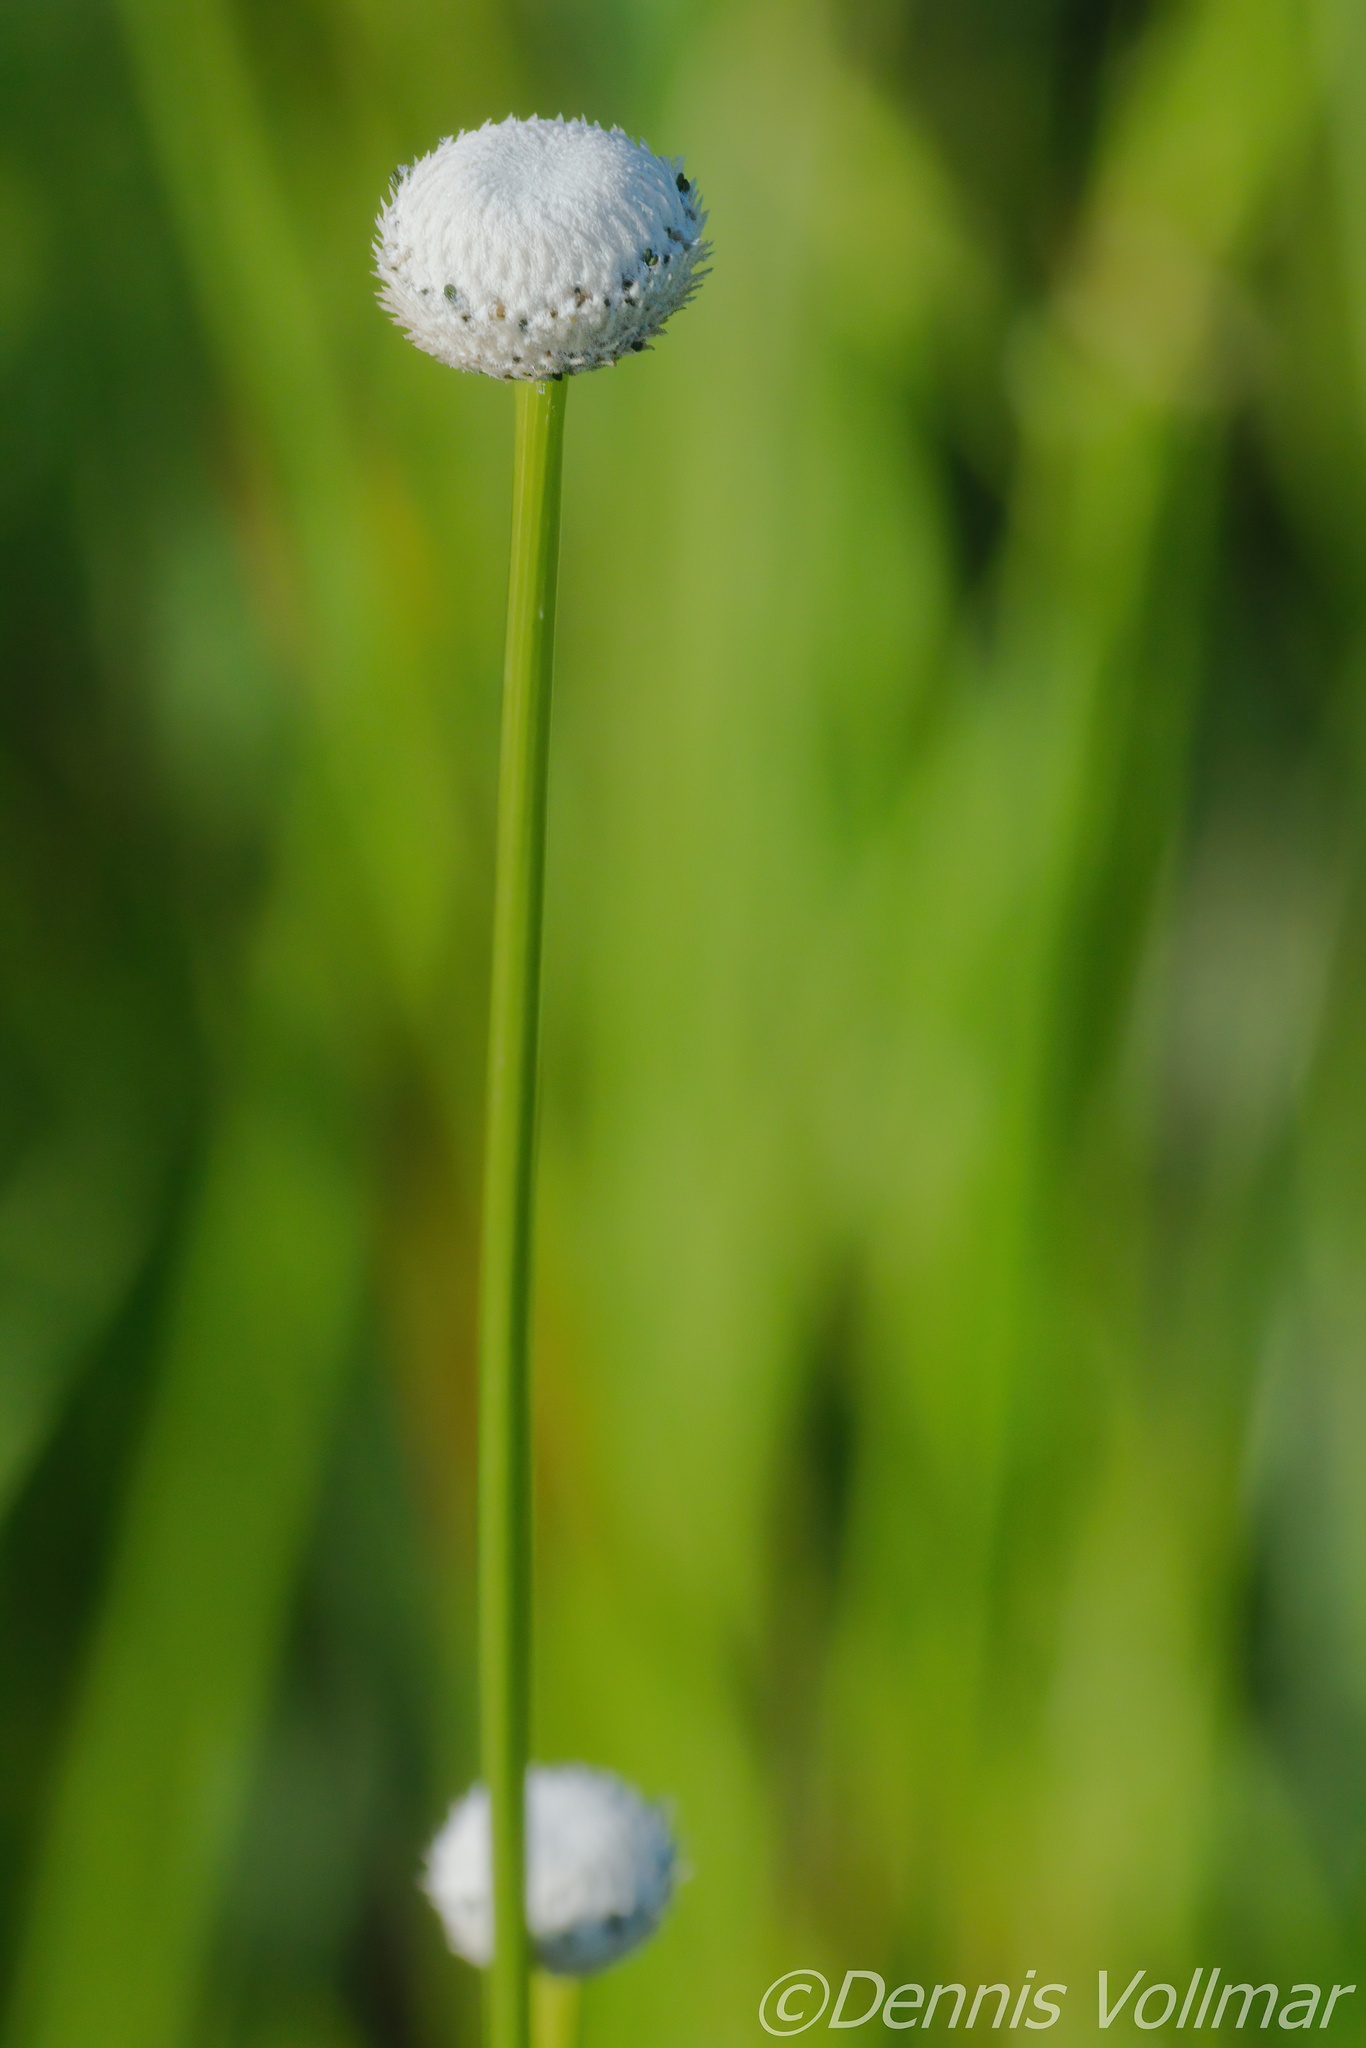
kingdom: Plantae
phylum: Tracheophyta
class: Liliopsida
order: Poales
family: Eriocaulaceae
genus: Eriocaulon
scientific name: Eriocaulon decangulare
